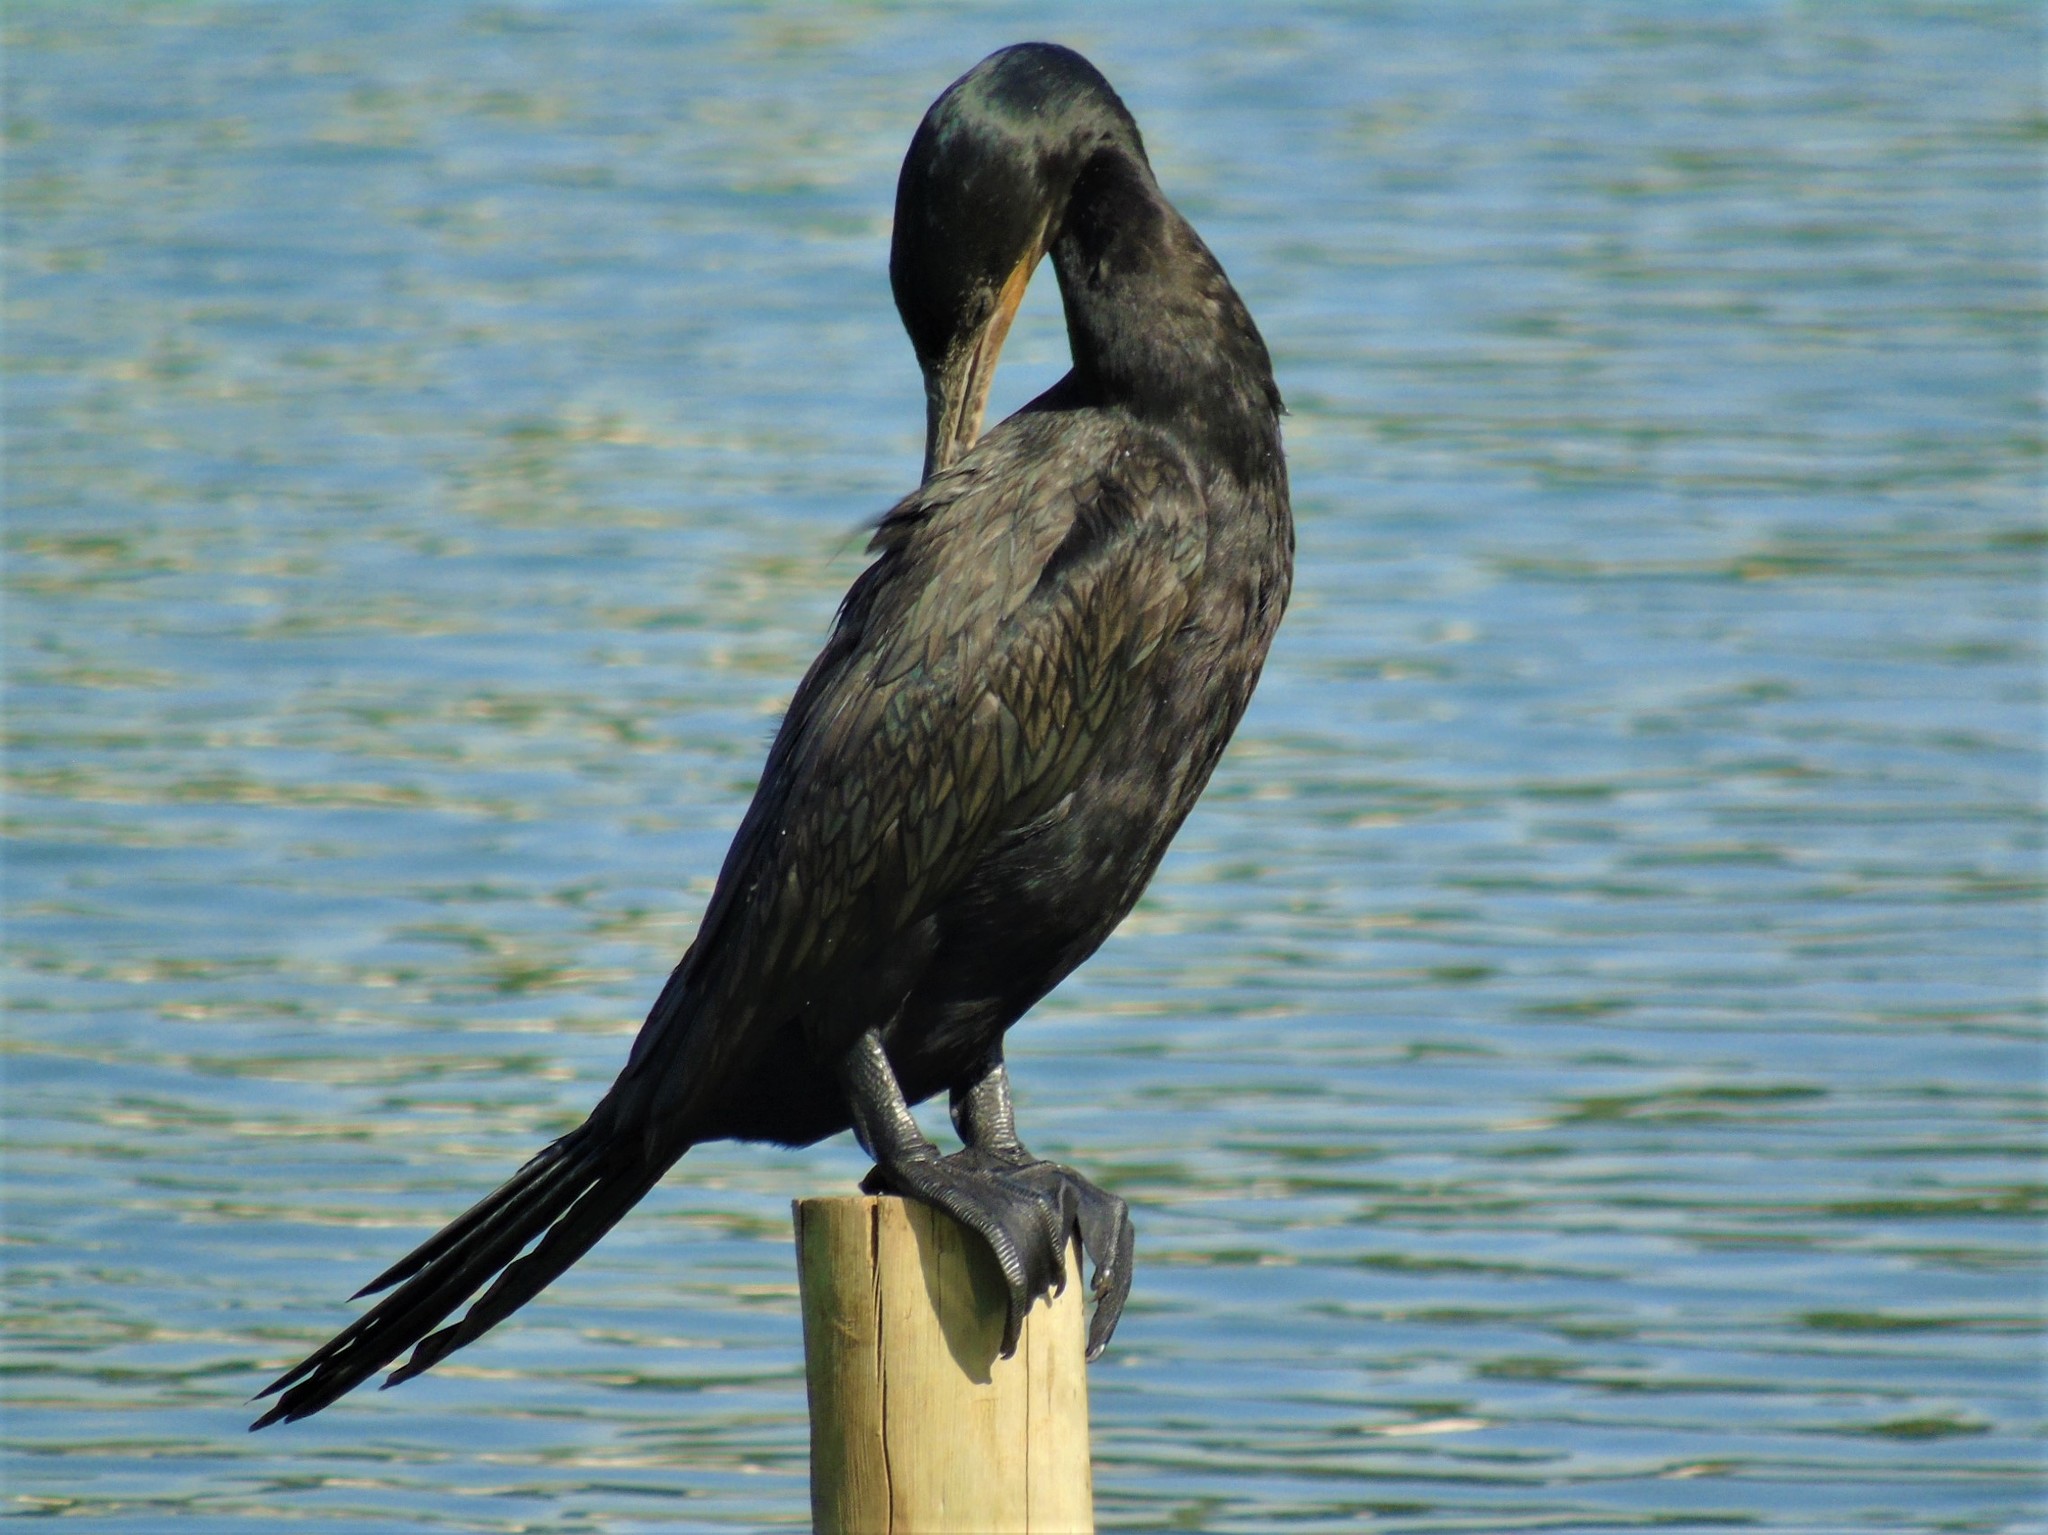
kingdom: Animalia
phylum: Chordata
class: Aves
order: Suliformes
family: Phalacrocoracidae
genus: Phalacrocorax
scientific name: Phalacrocorax brasilianus
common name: Neotropic cormorant
